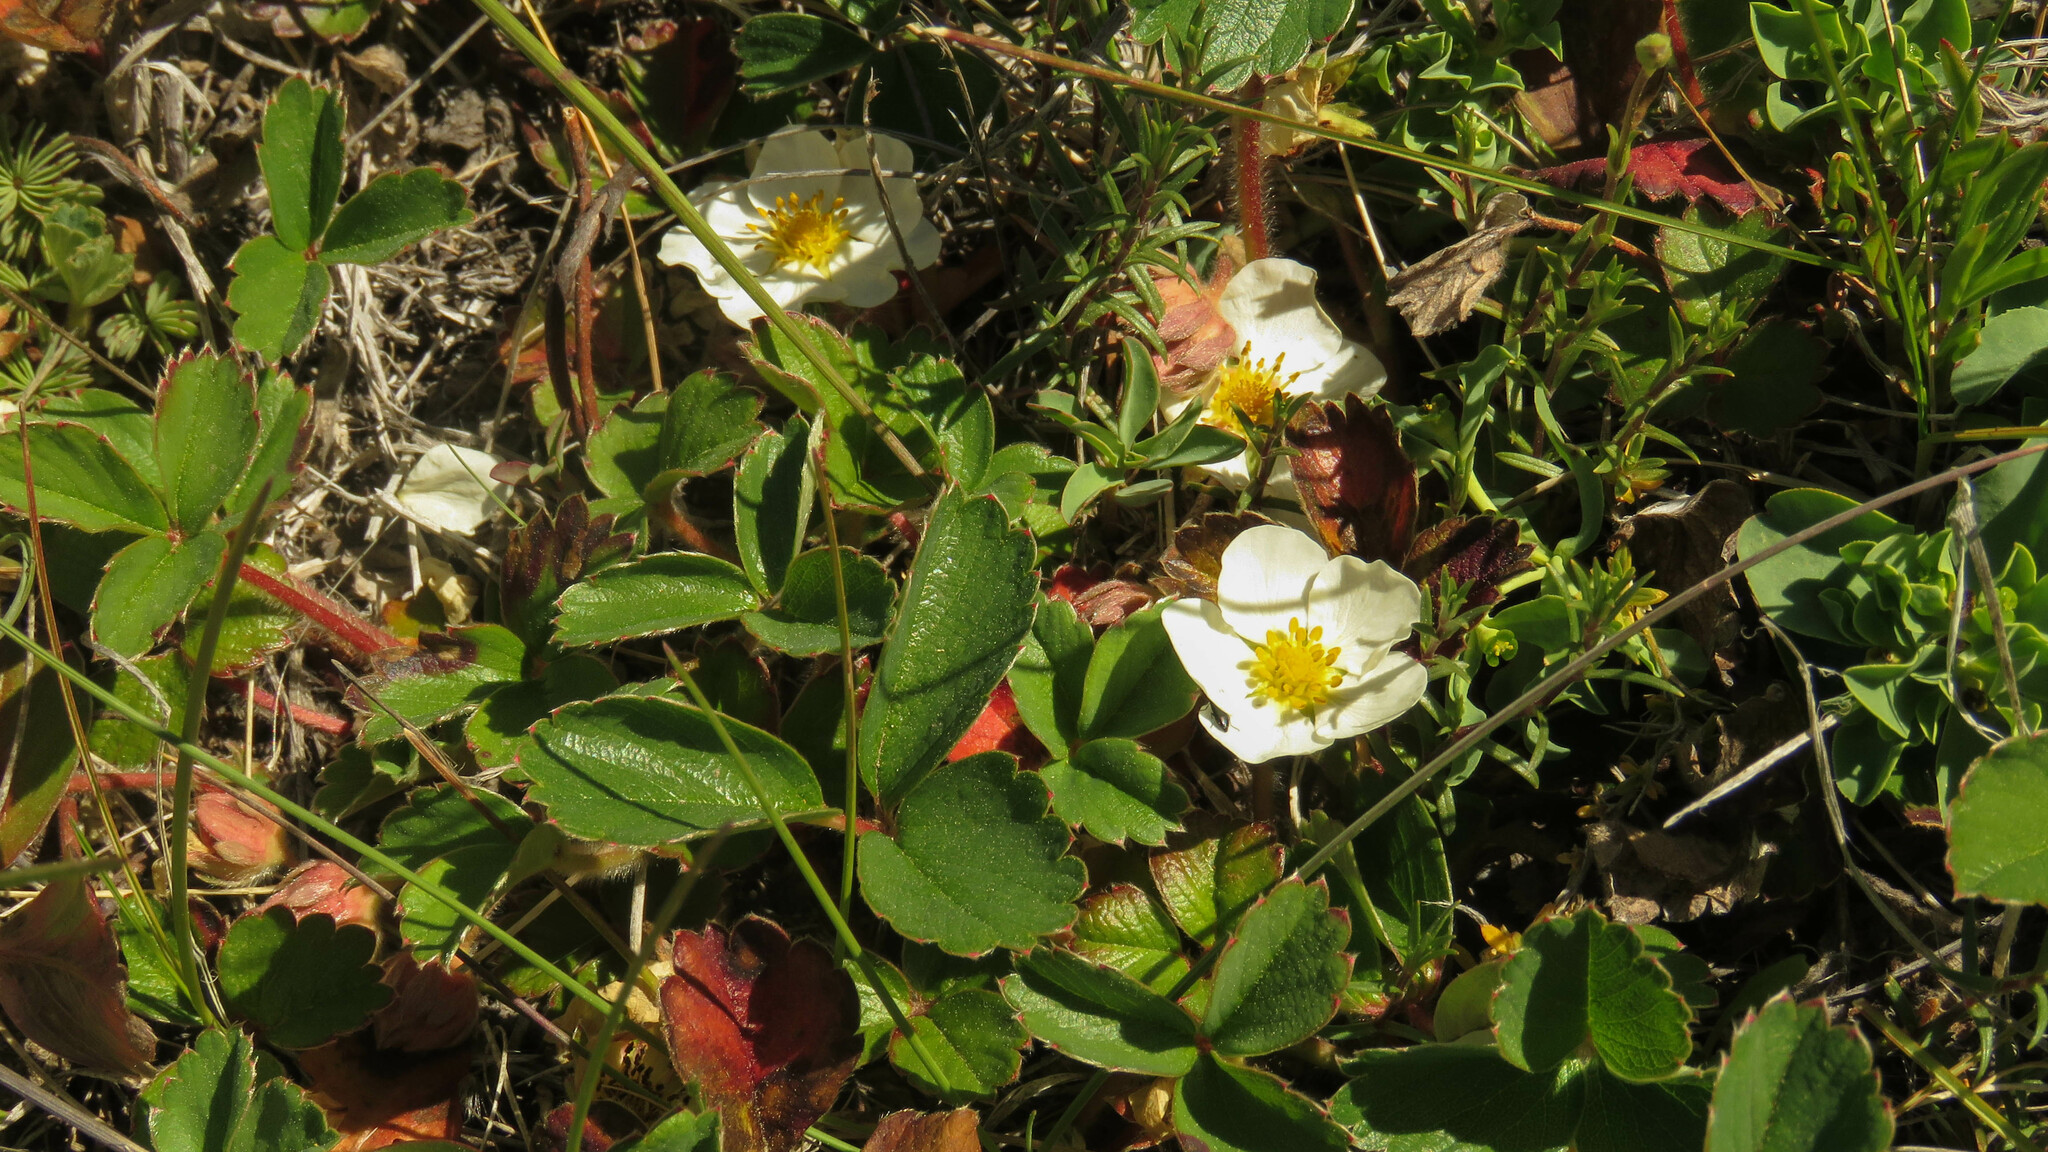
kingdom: Plantae
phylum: Tracheophyta
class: Magnoliopsida
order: Rosales
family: Rosaceae
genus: Fragaria
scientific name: Fragaria chiloensis
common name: Beach strawberry
